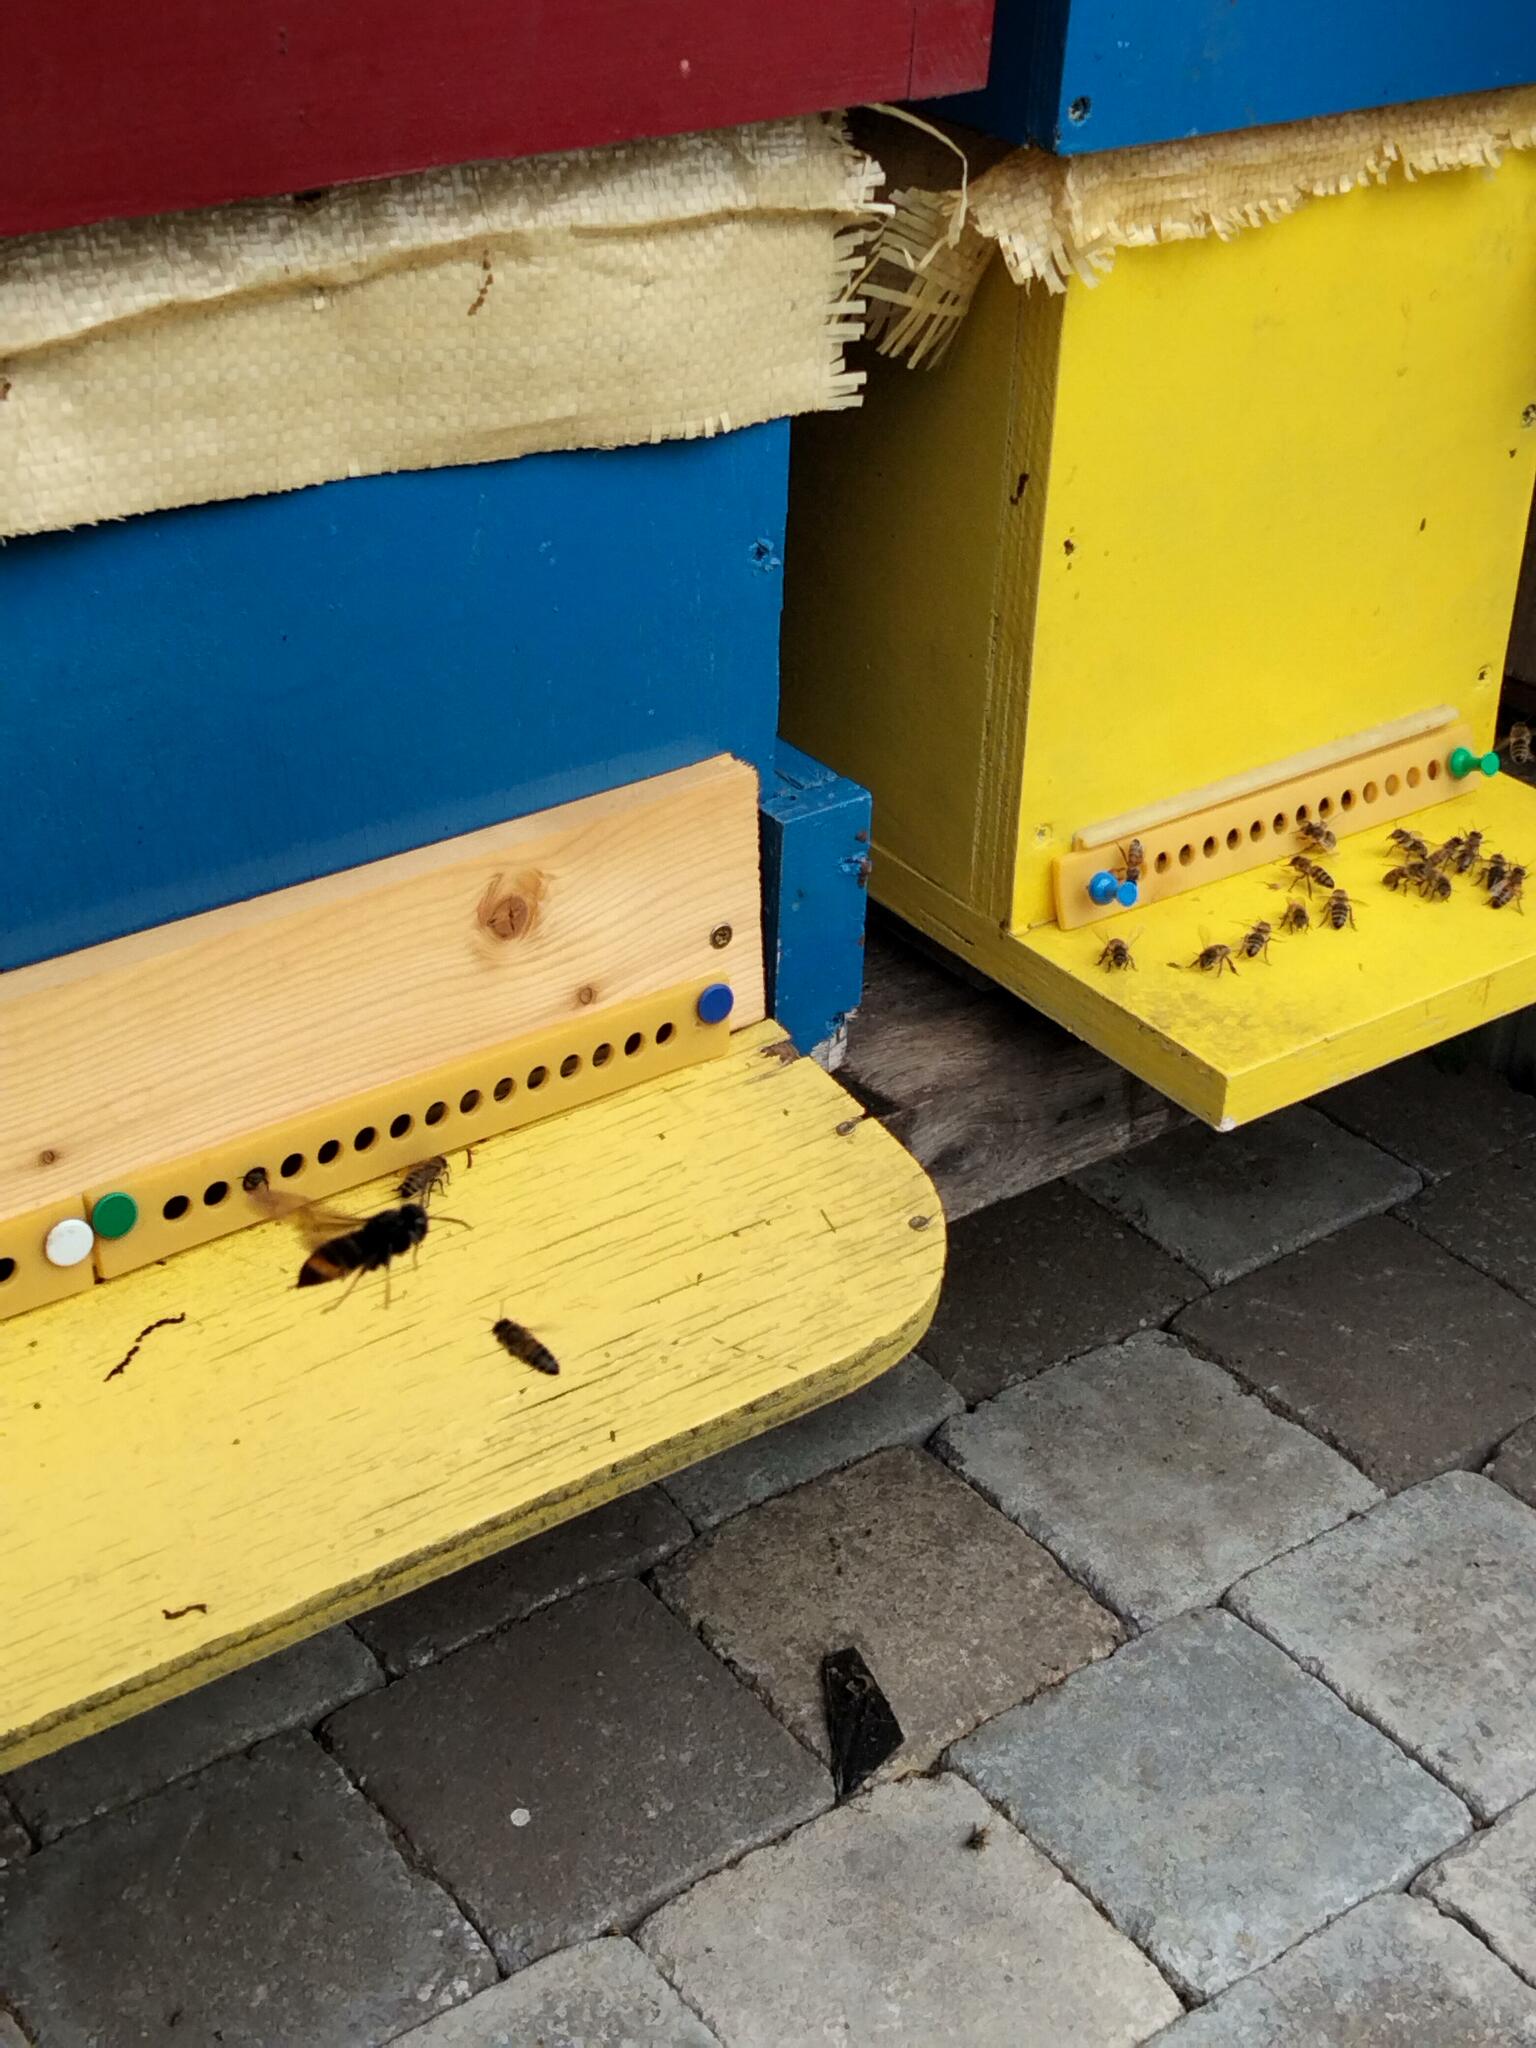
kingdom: Animalia
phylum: Arthropoda
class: Insecta
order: Hymenoptera
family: Vespidae
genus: Vespa
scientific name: Vespa velutina
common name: Asian hornet
